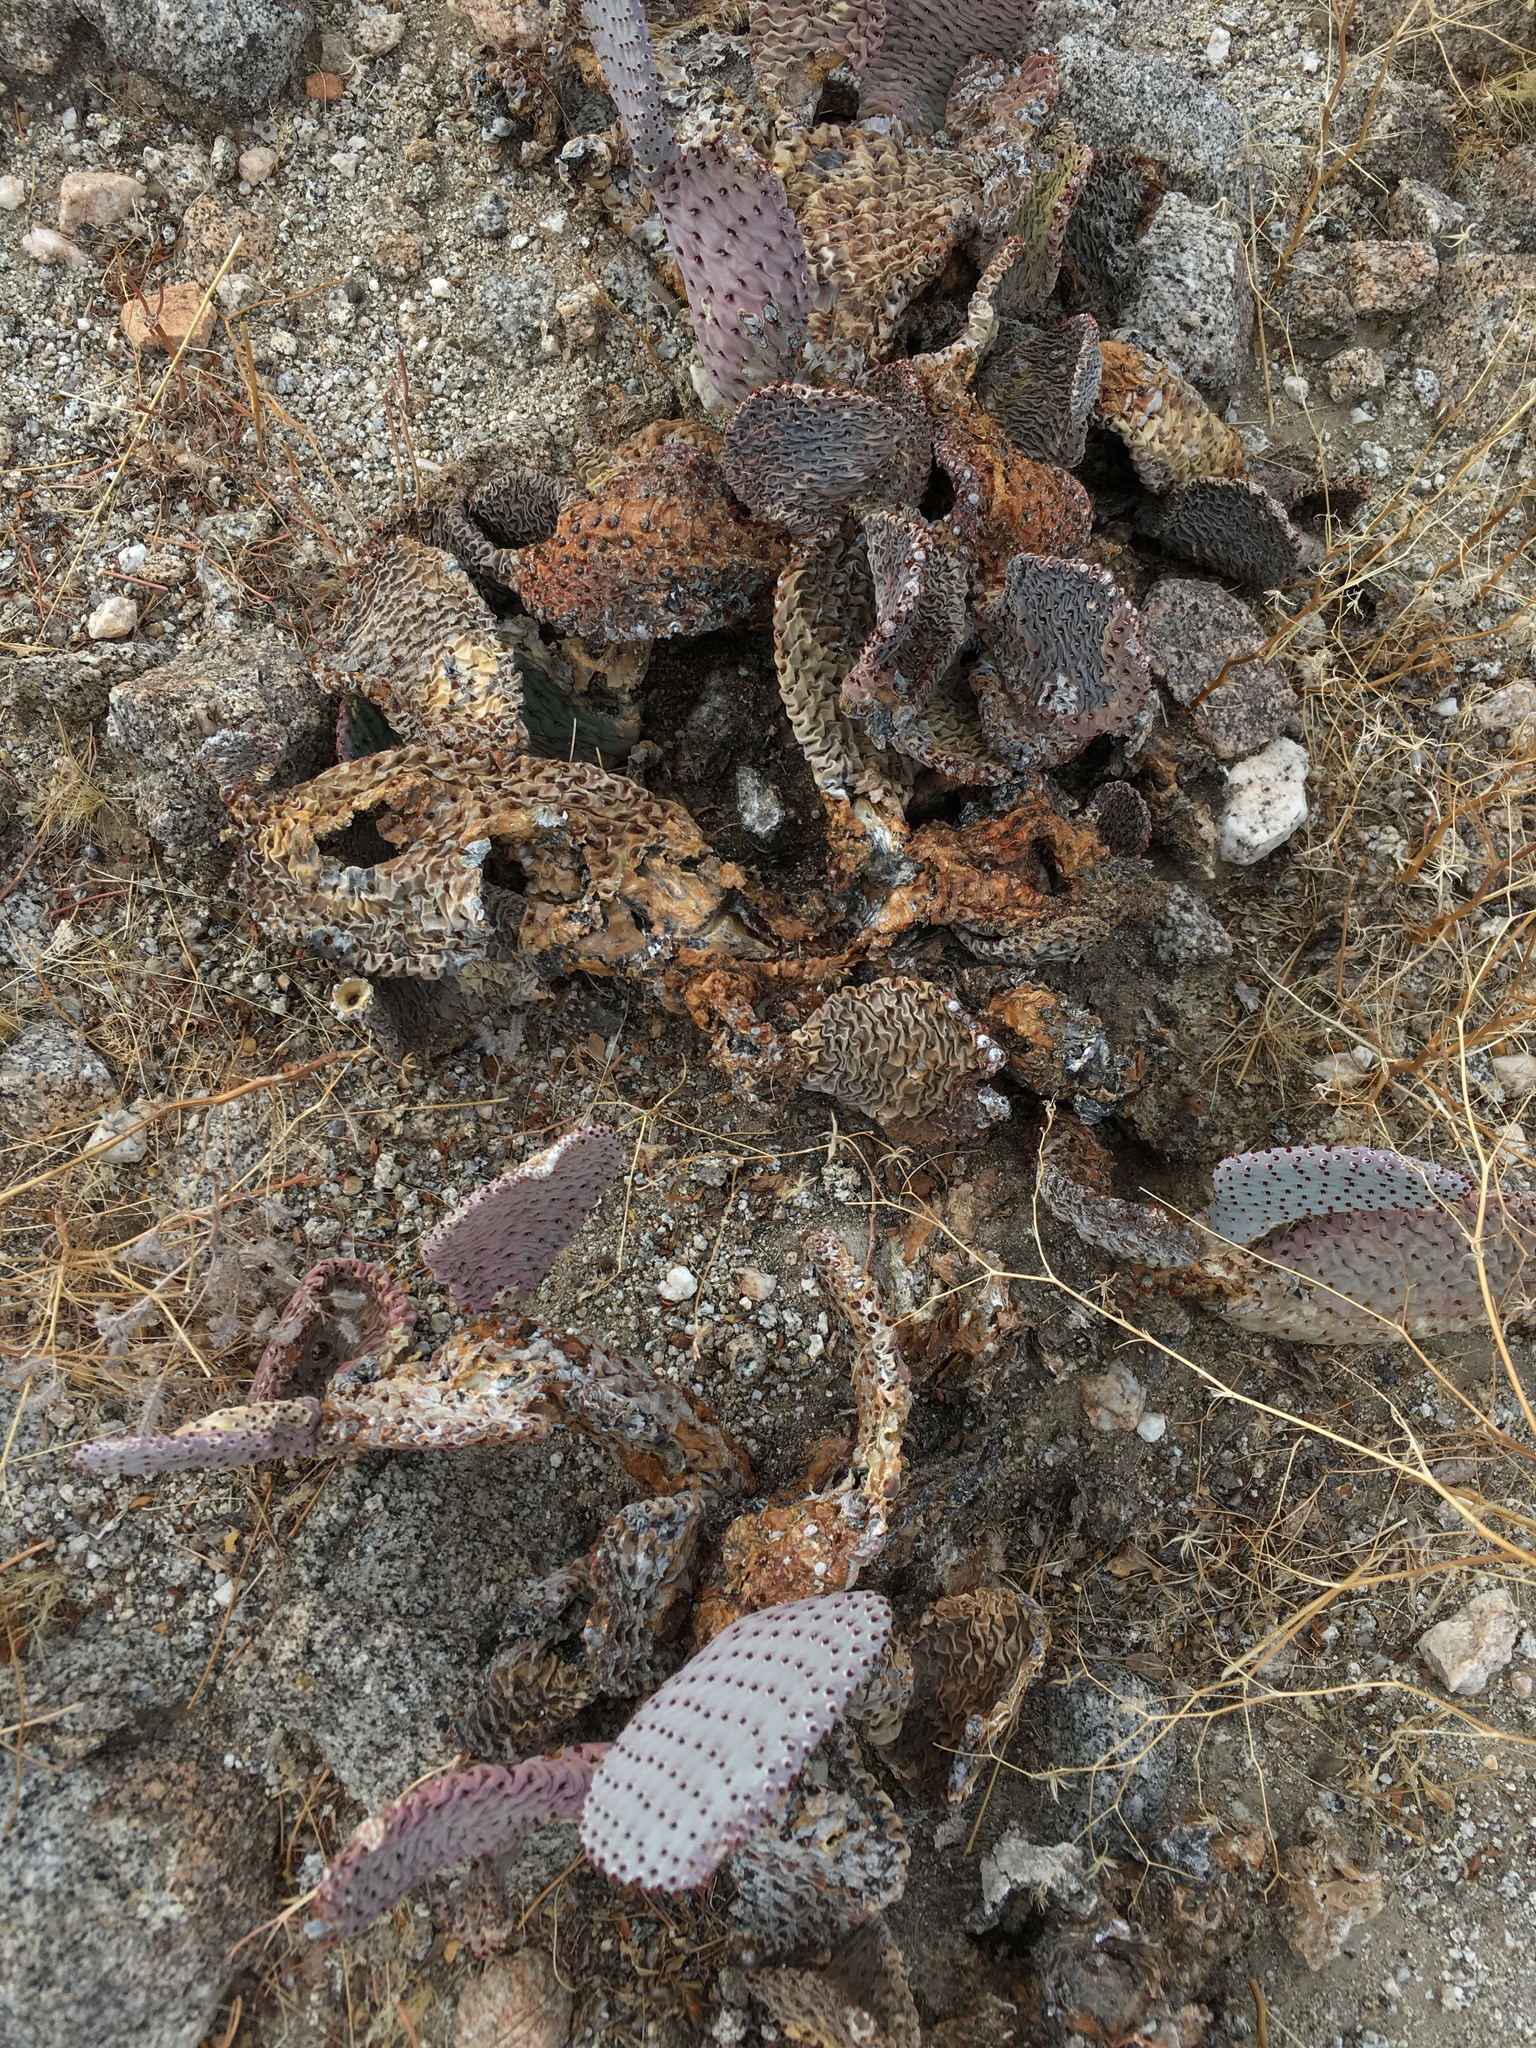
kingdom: Plantae
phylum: Tracheophyta
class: Magnoliopsida
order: Caryophyllales
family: Cactaceae
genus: Opuntia
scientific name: Opuntia basilaris
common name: Beavertail prickly-pear
